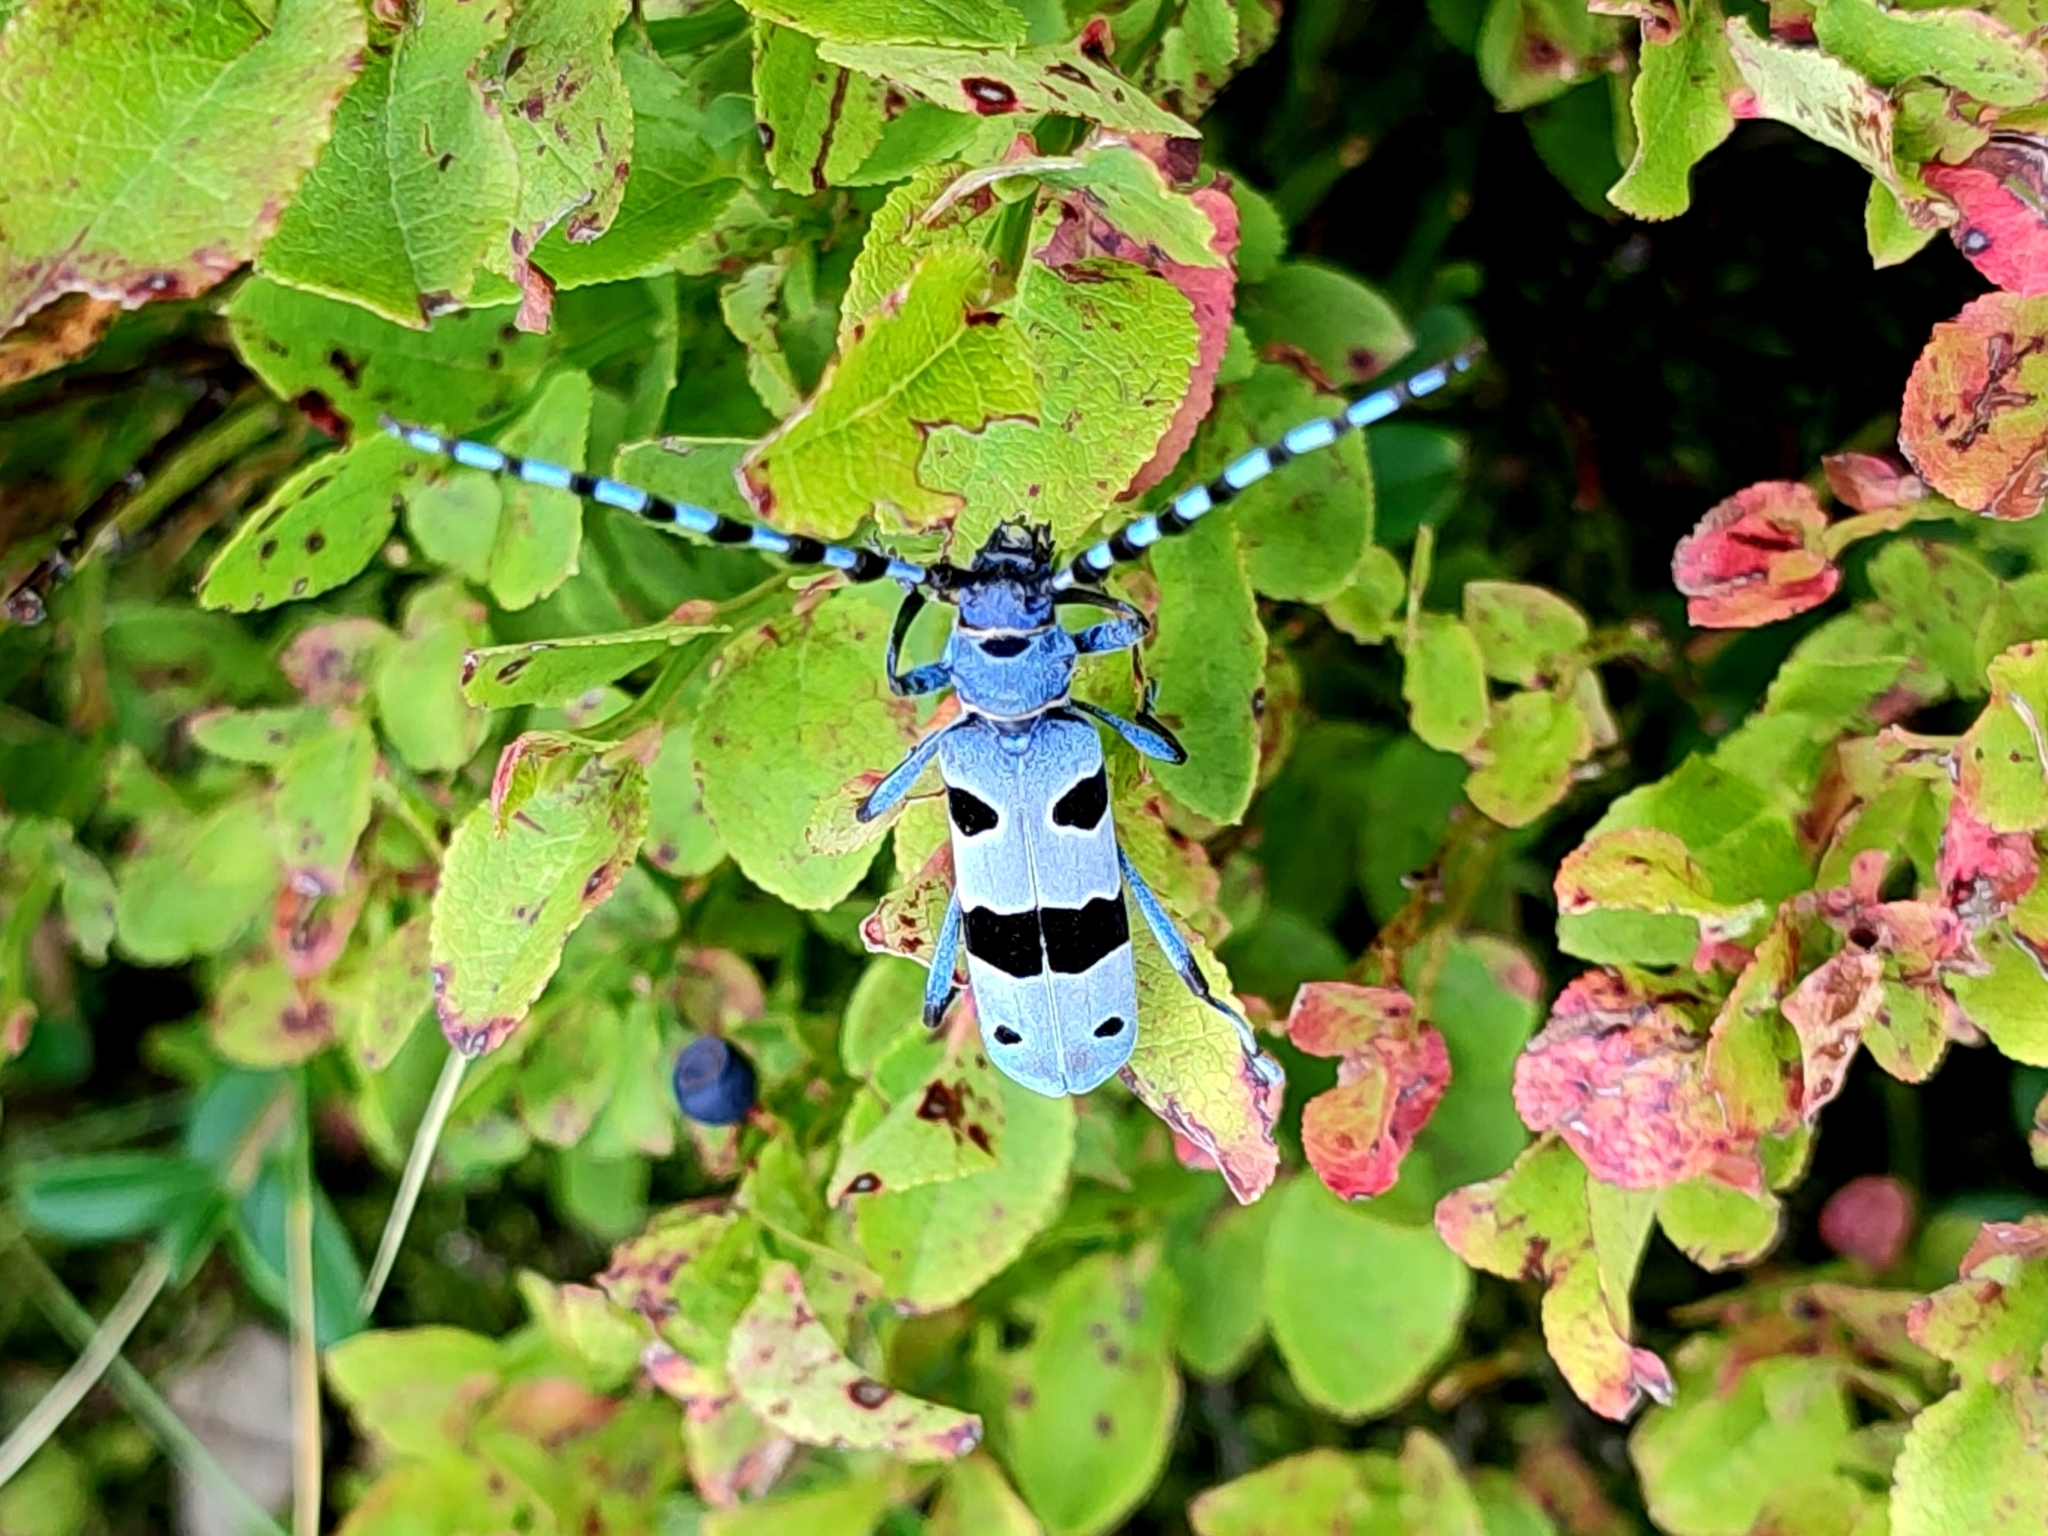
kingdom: Animalia
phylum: Arthropoda
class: Insecta
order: Coleoptera
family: Cerambycidae
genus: Rosalia
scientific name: Rosalia alpina
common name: Rosalia longicorn
